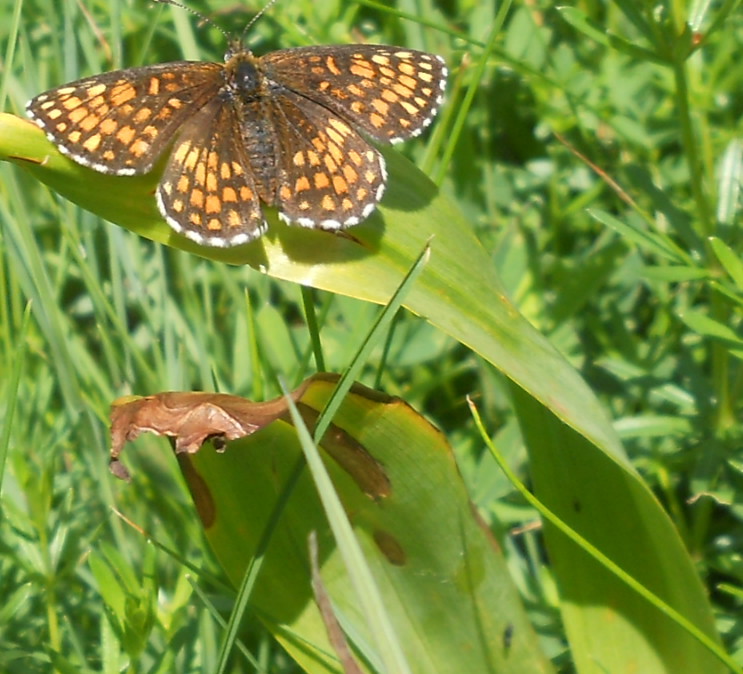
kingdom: Plantae
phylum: Tracheophyta
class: Liliopsida
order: Liliales
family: Colchicaceae
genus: Colchicum
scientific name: Colchicum autumnale
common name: Autumn crocus
